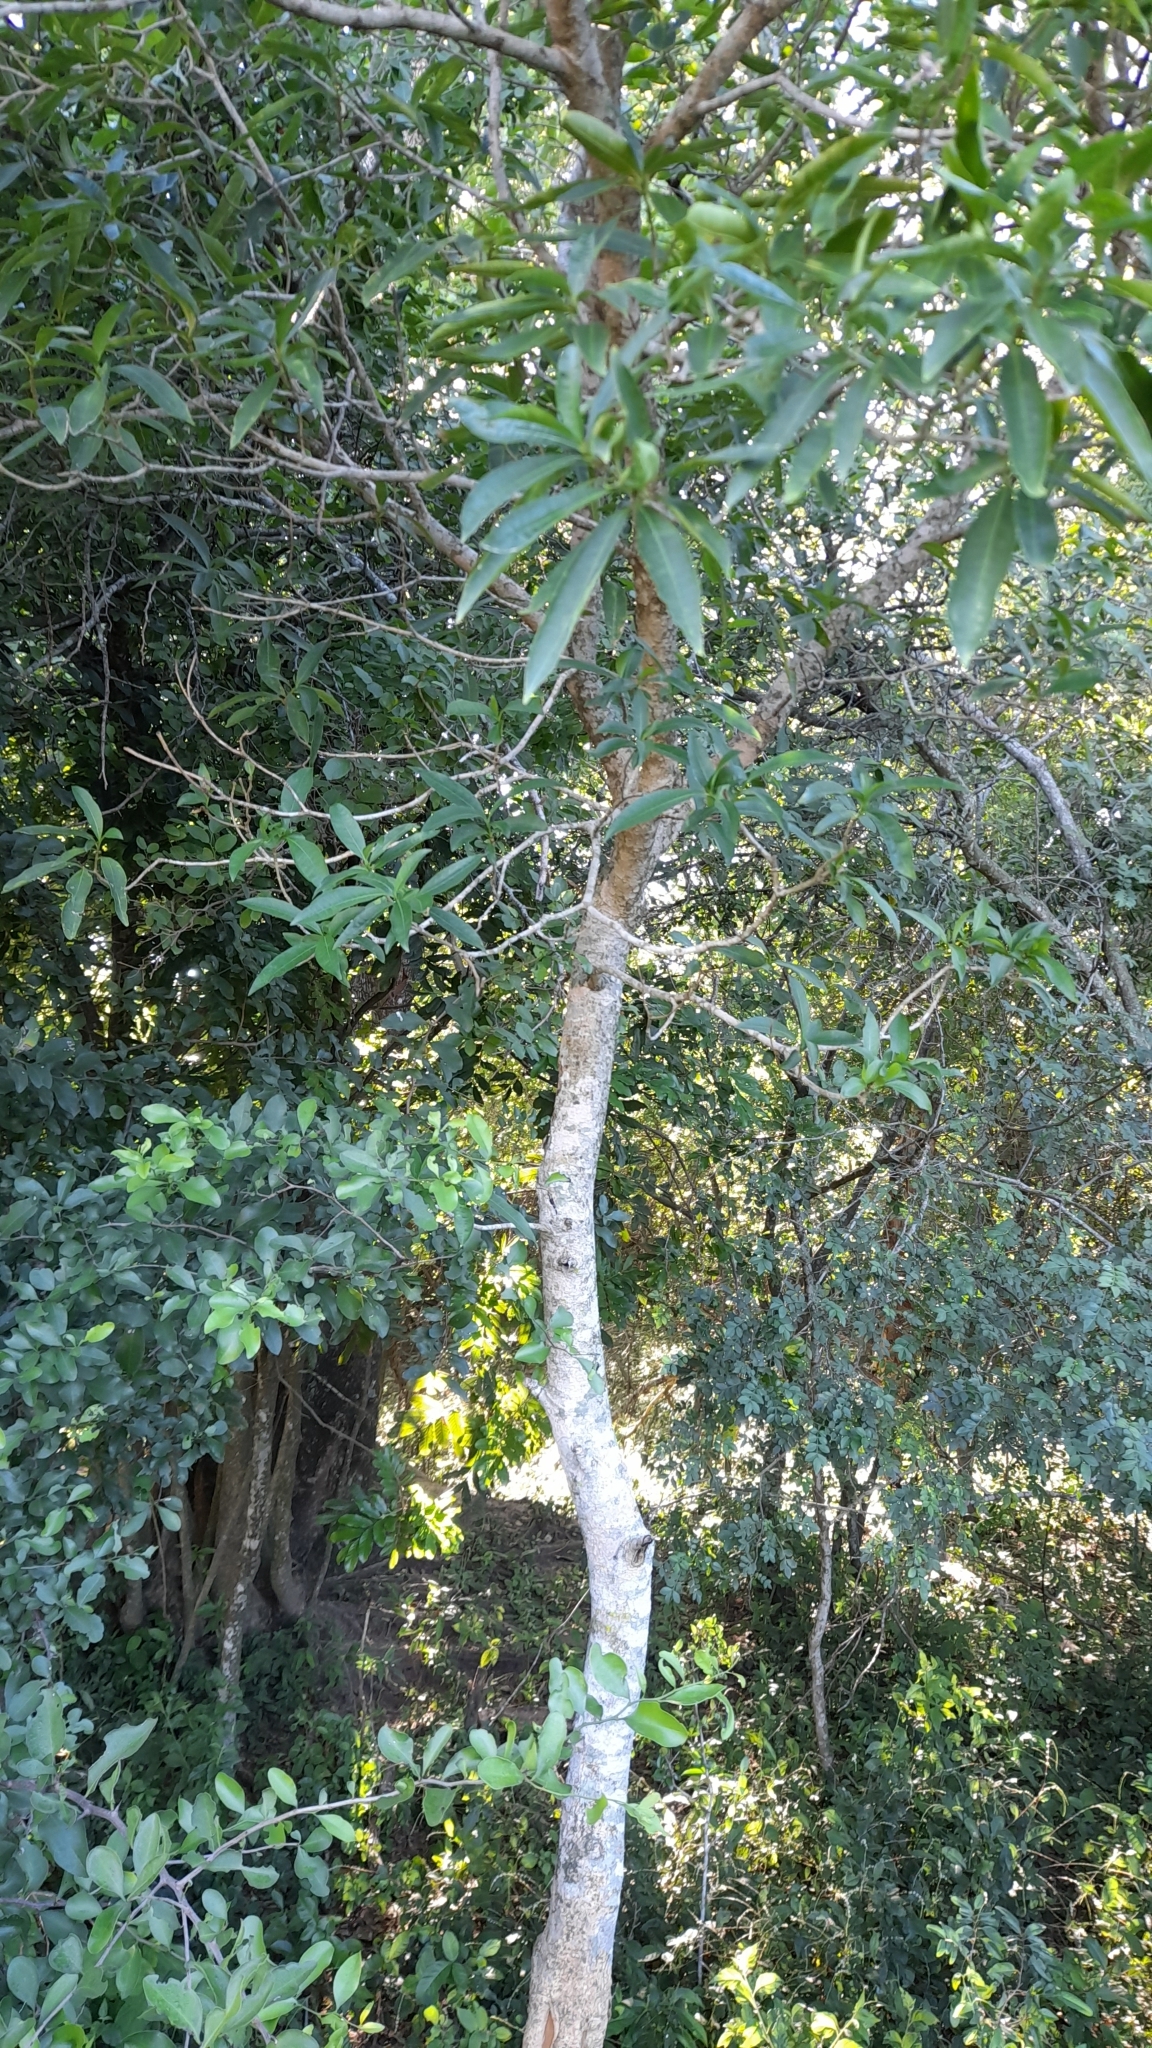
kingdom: Plantae
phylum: Tracheophyta
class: Magnoliopsida
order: Gentianales
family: Apocynaceae
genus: Tabernaemontana
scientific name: Tabernaemontana catharinensis
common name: Pinwheel-flower
